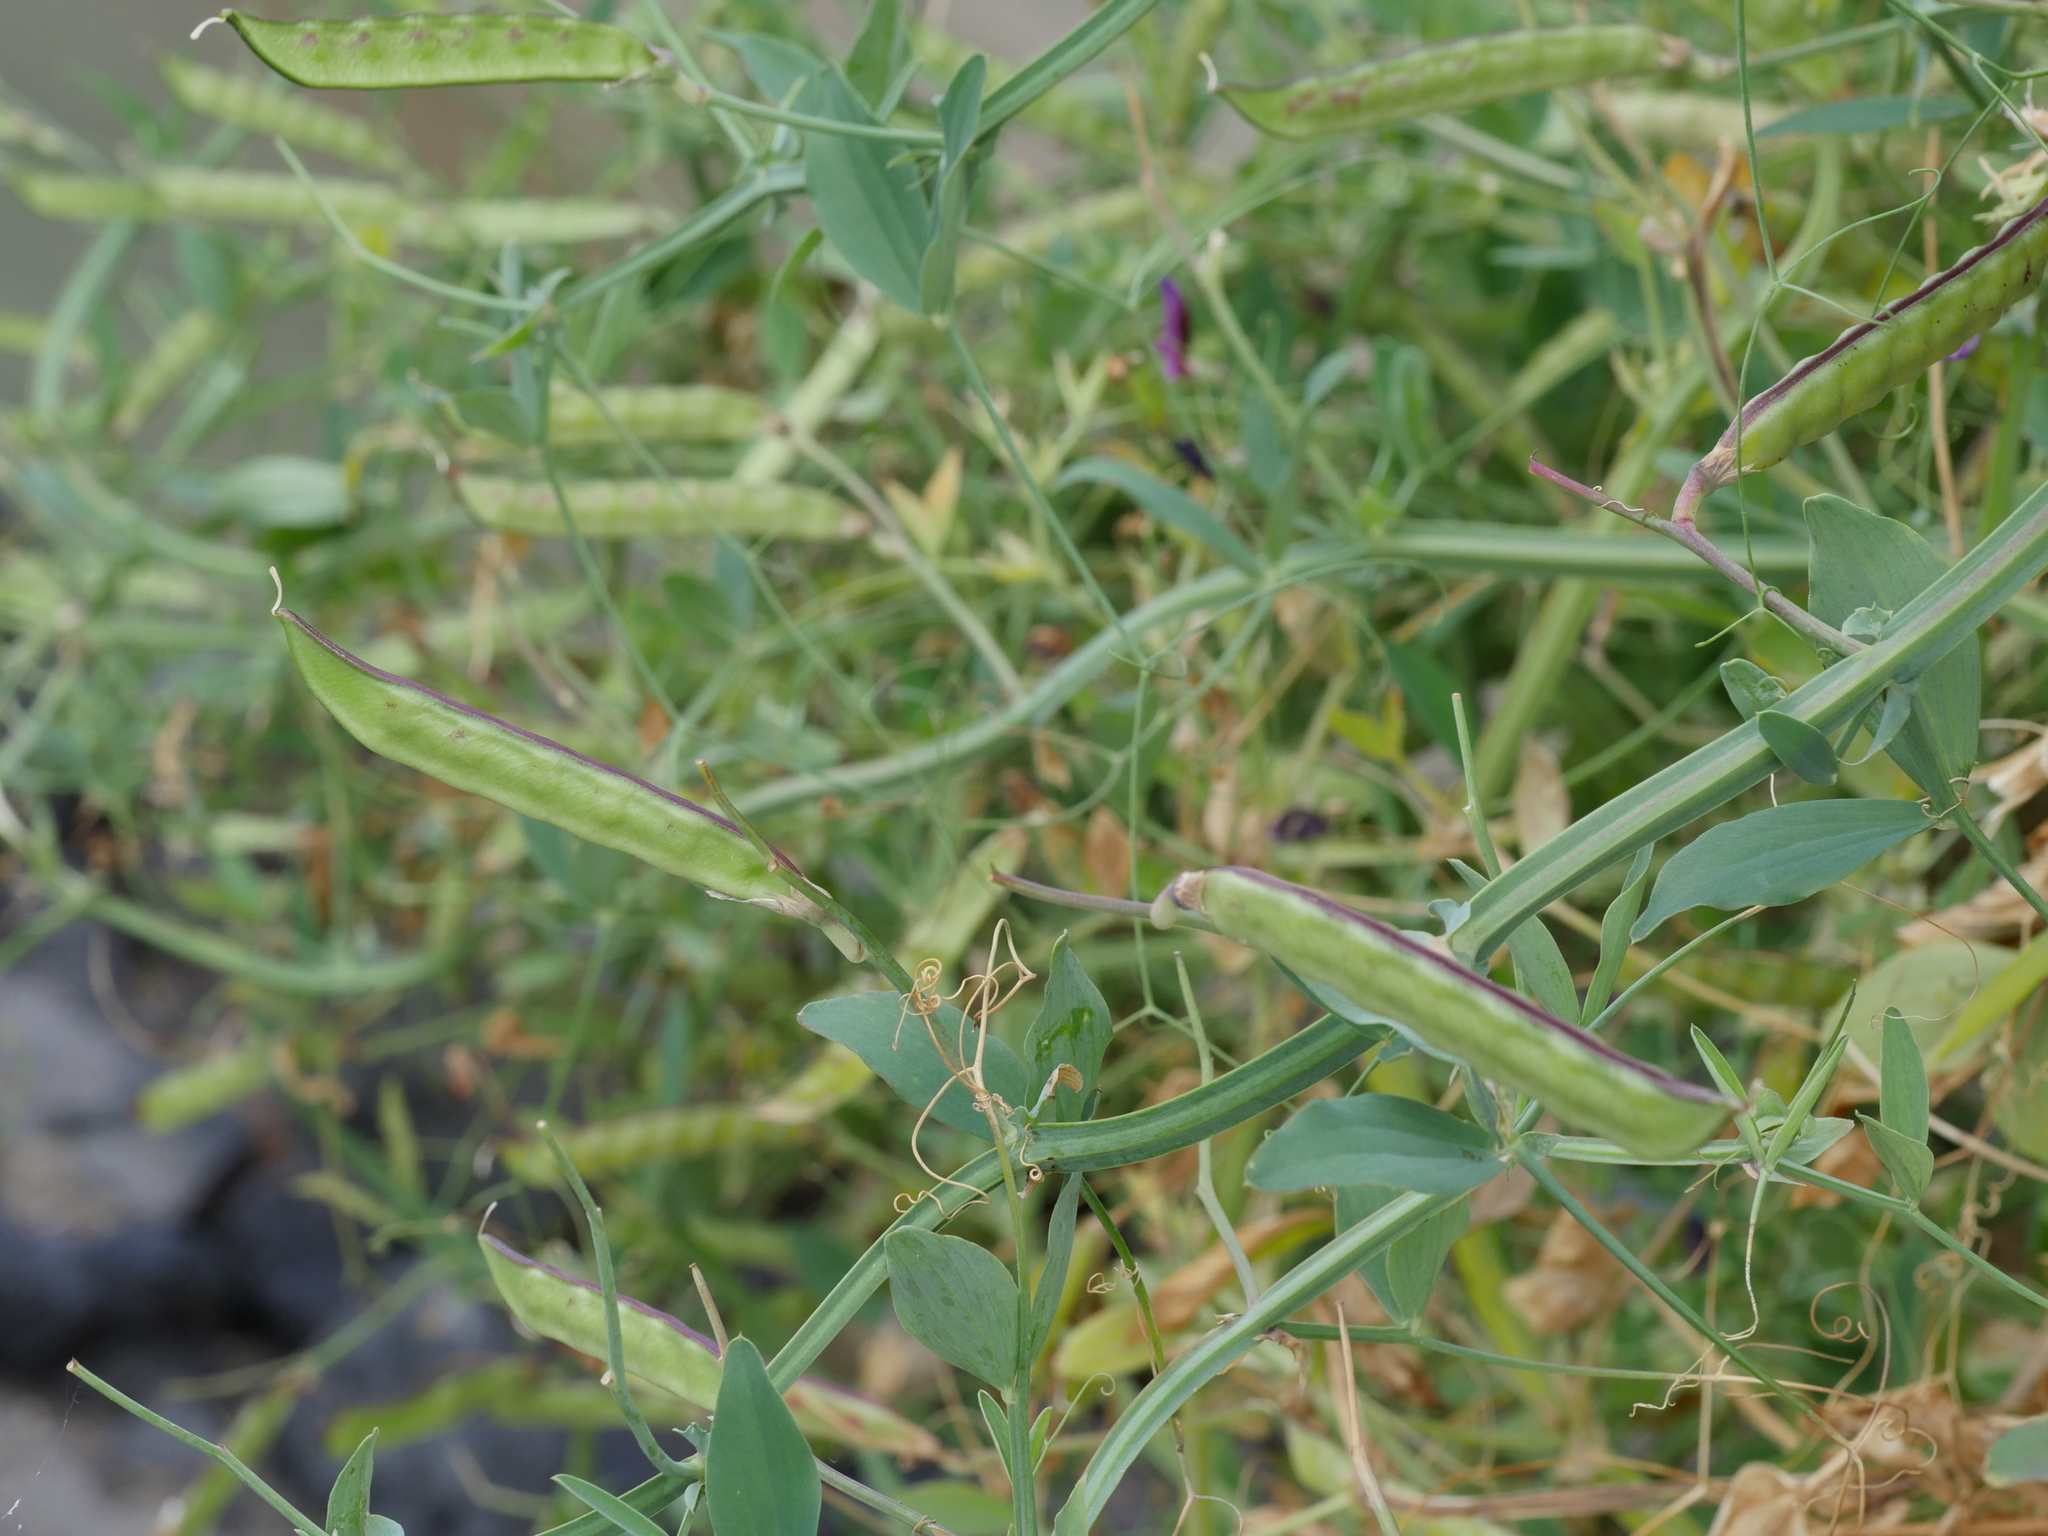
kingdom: Plantae
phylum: Tracheophyta
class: Magnoliopsida
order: Fabales
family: Fabaceae
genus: Lathyrus
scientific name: Lathyrus tingitanus
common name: Tangier pea
